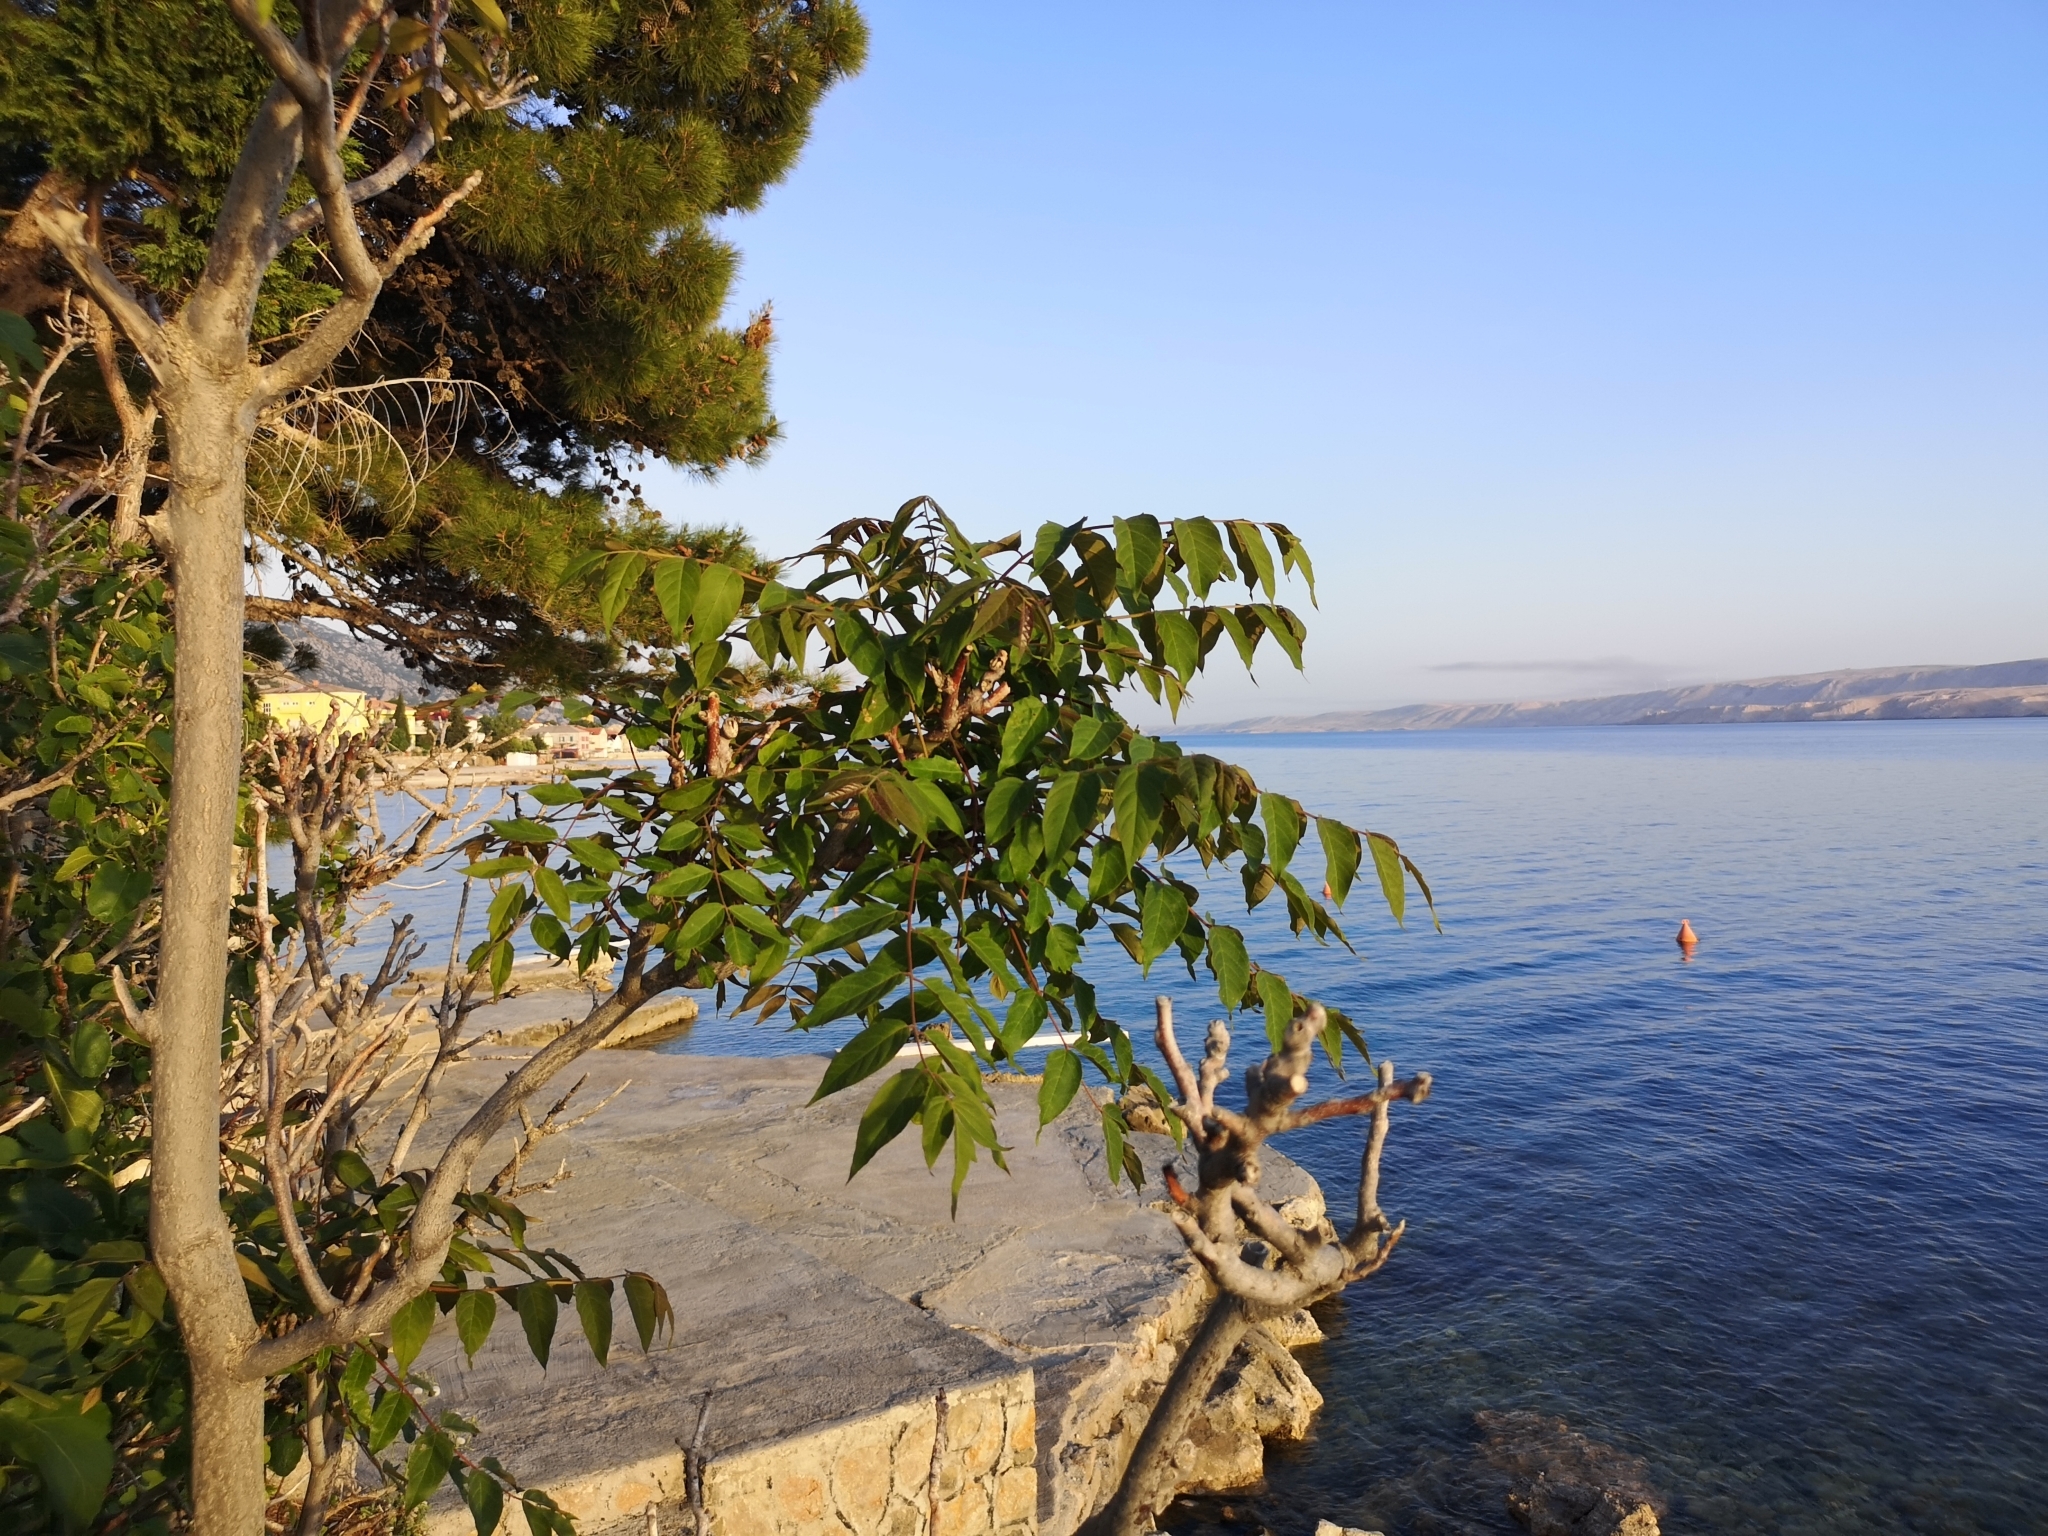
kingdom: Plantae
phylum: Tracheophyta
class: Magnoliopsida
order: Sapindales
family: Simaroubaceae
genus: Ailanthus
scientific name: Ailanthus altissima
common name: Tree-of-heaven
